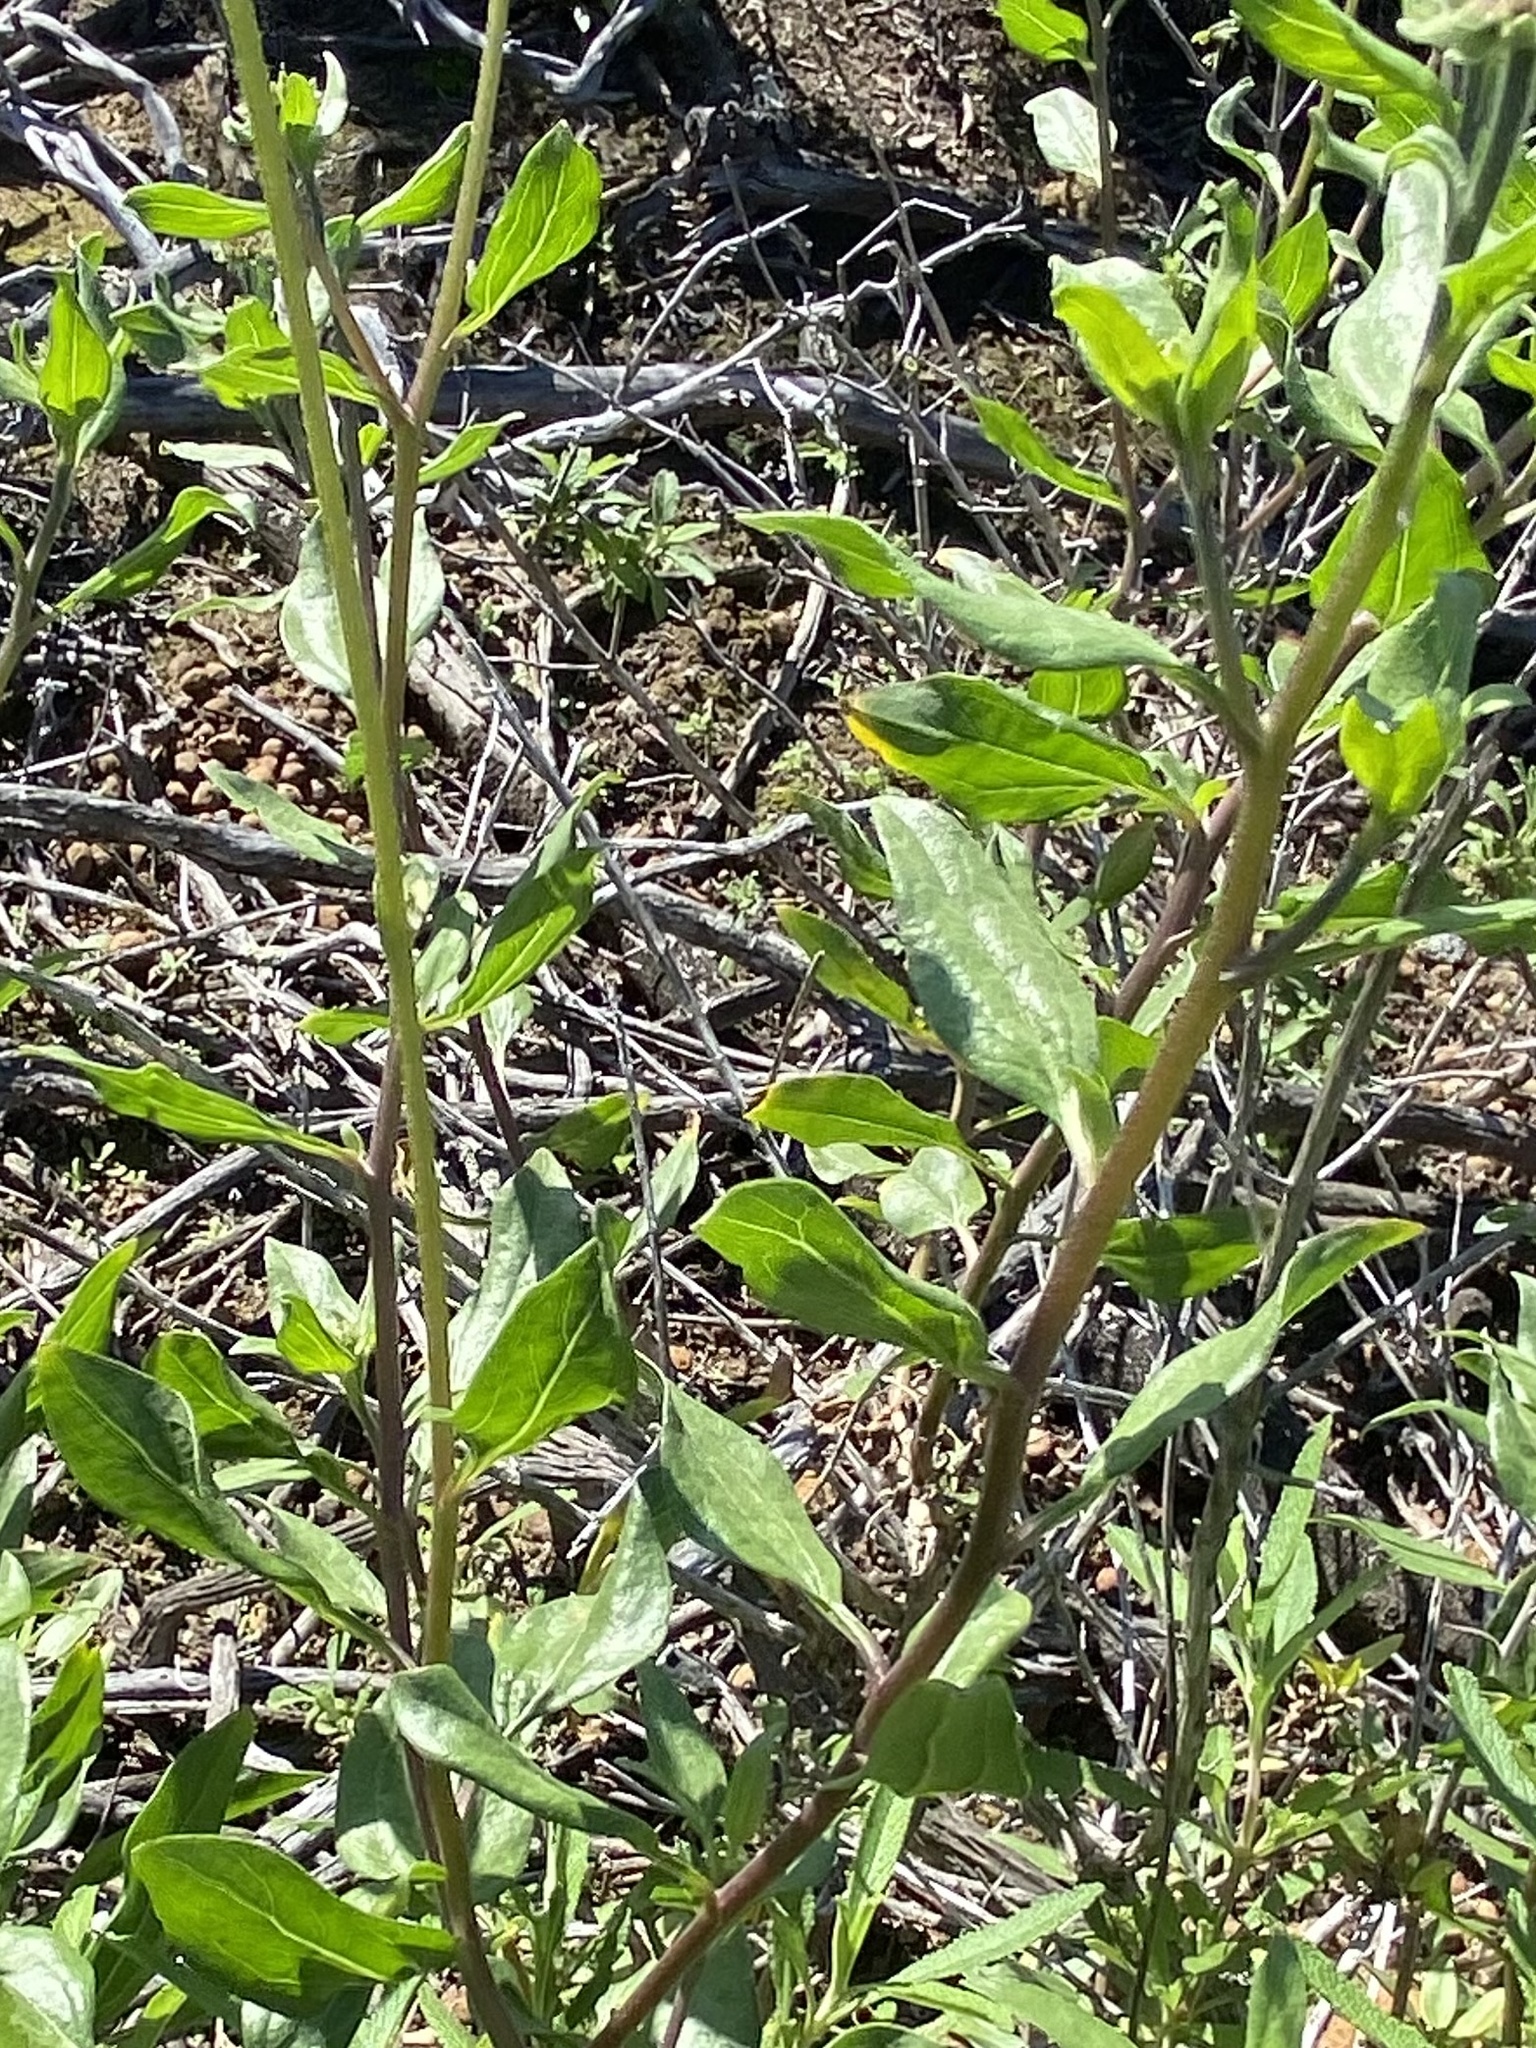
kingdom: Plantae
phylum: Tracheophyta
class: Magnoliopsida
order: Asterales
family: Asteraceae
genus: Encelia
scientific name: Encelia californica
